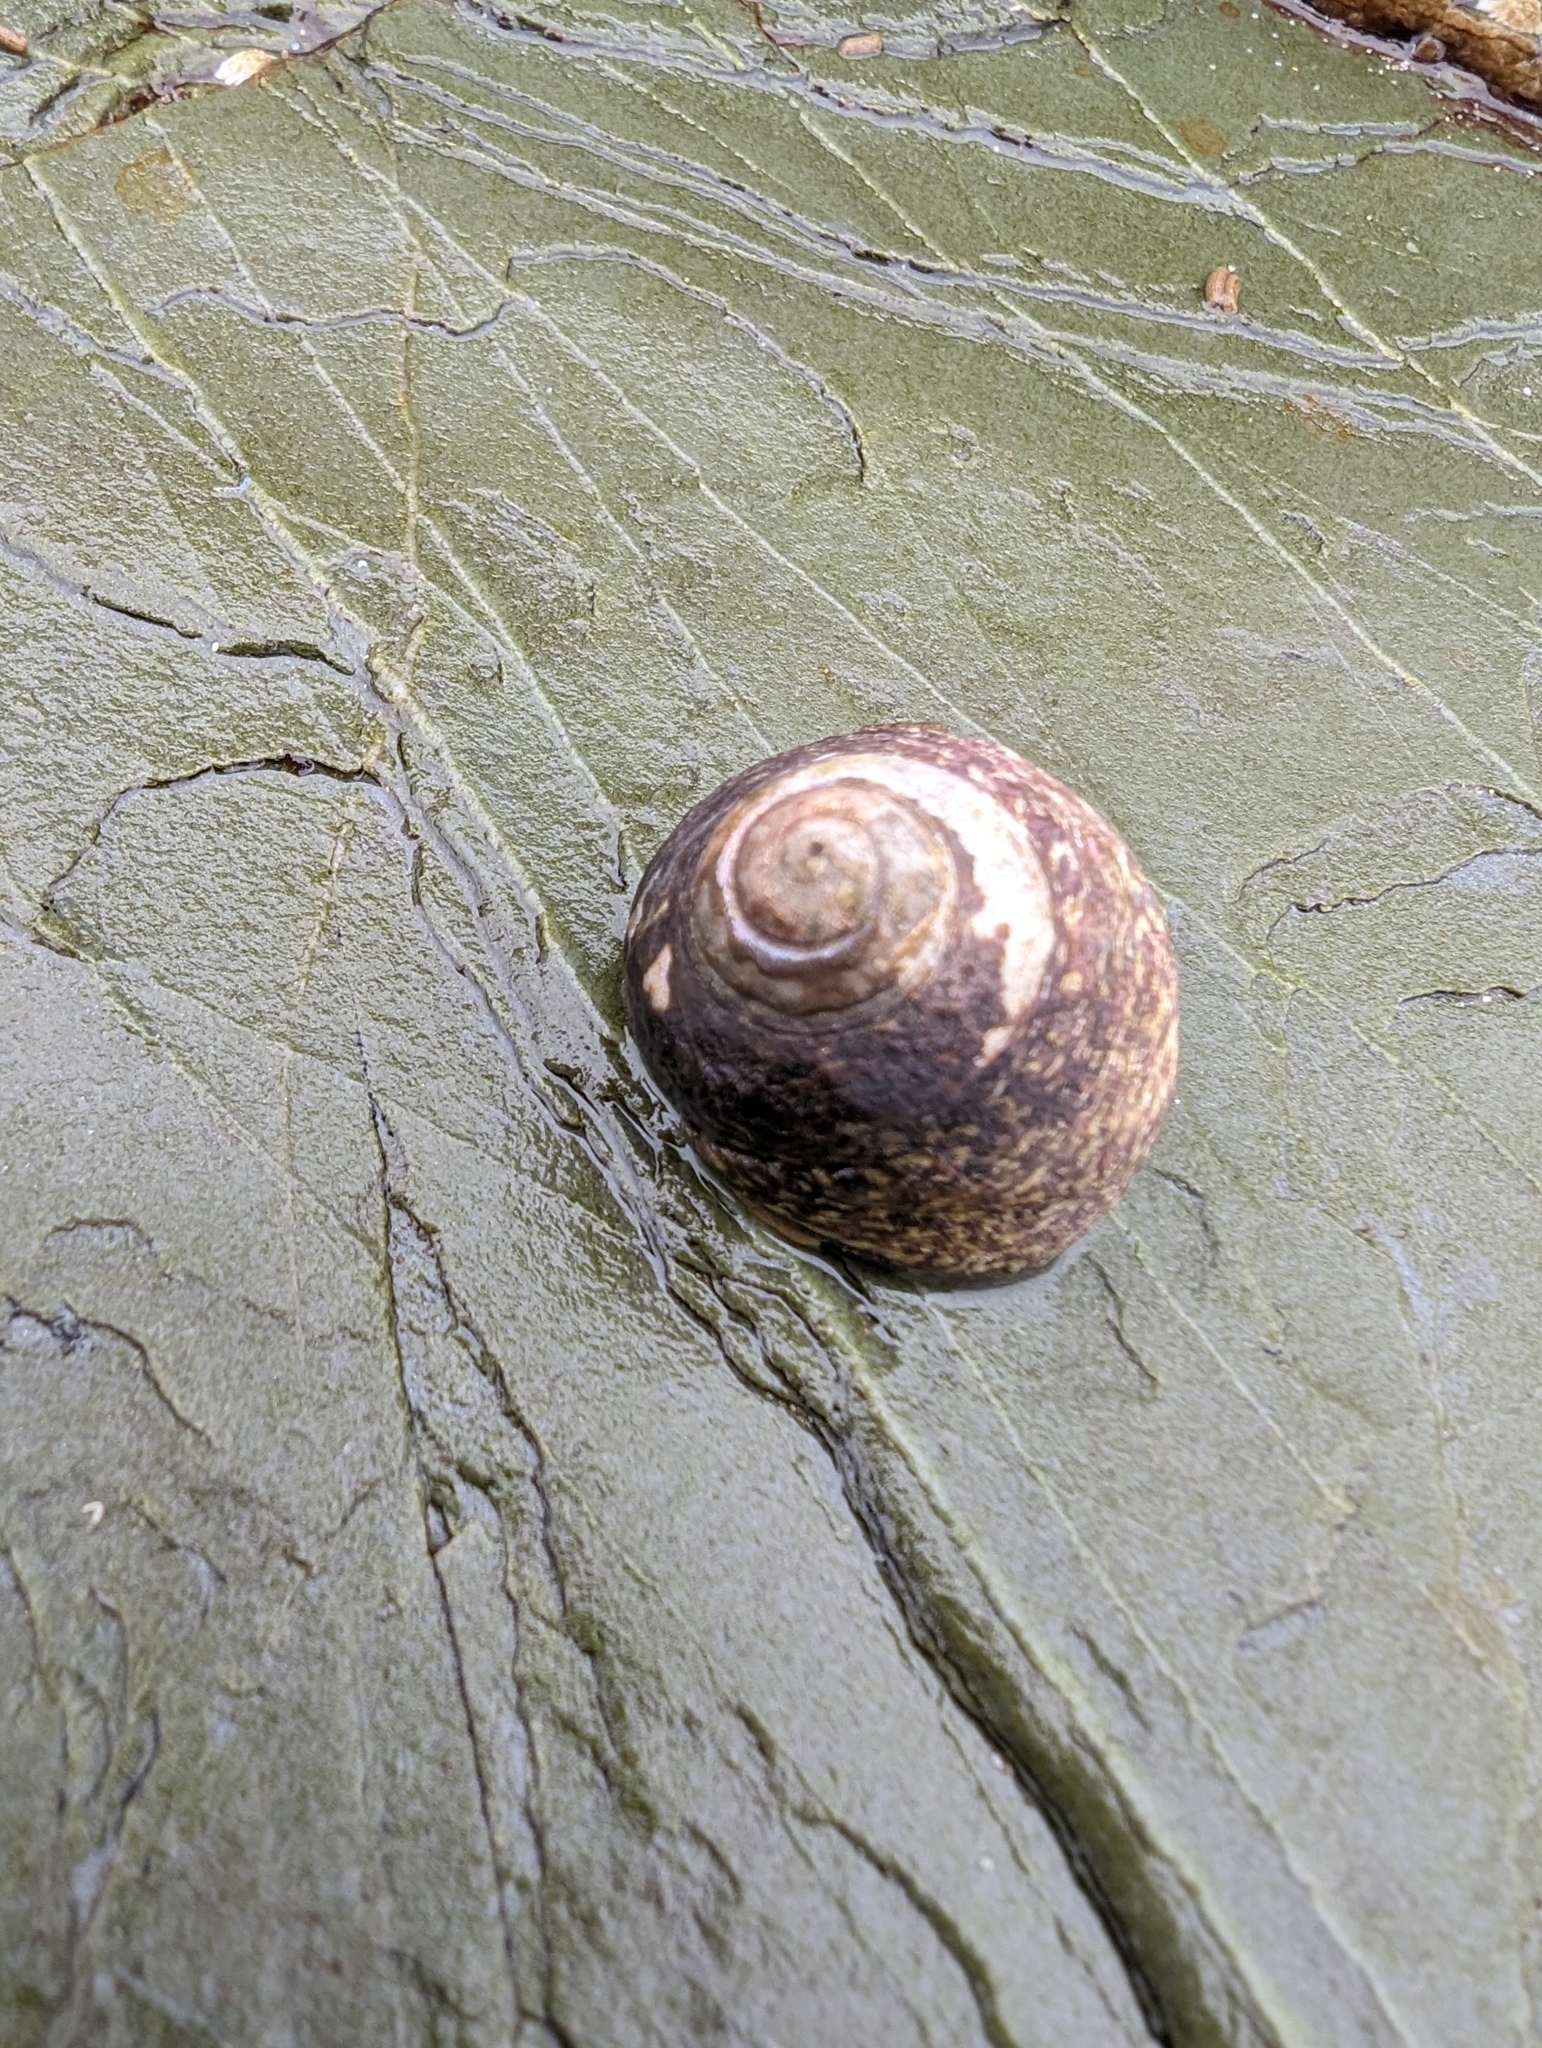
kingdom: Animalia
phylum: Mollusca
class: Gastropoda
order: Trochida
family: Trochidae
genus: Phorcus
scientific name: Phorcus lineatus
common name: Toothed top shell
